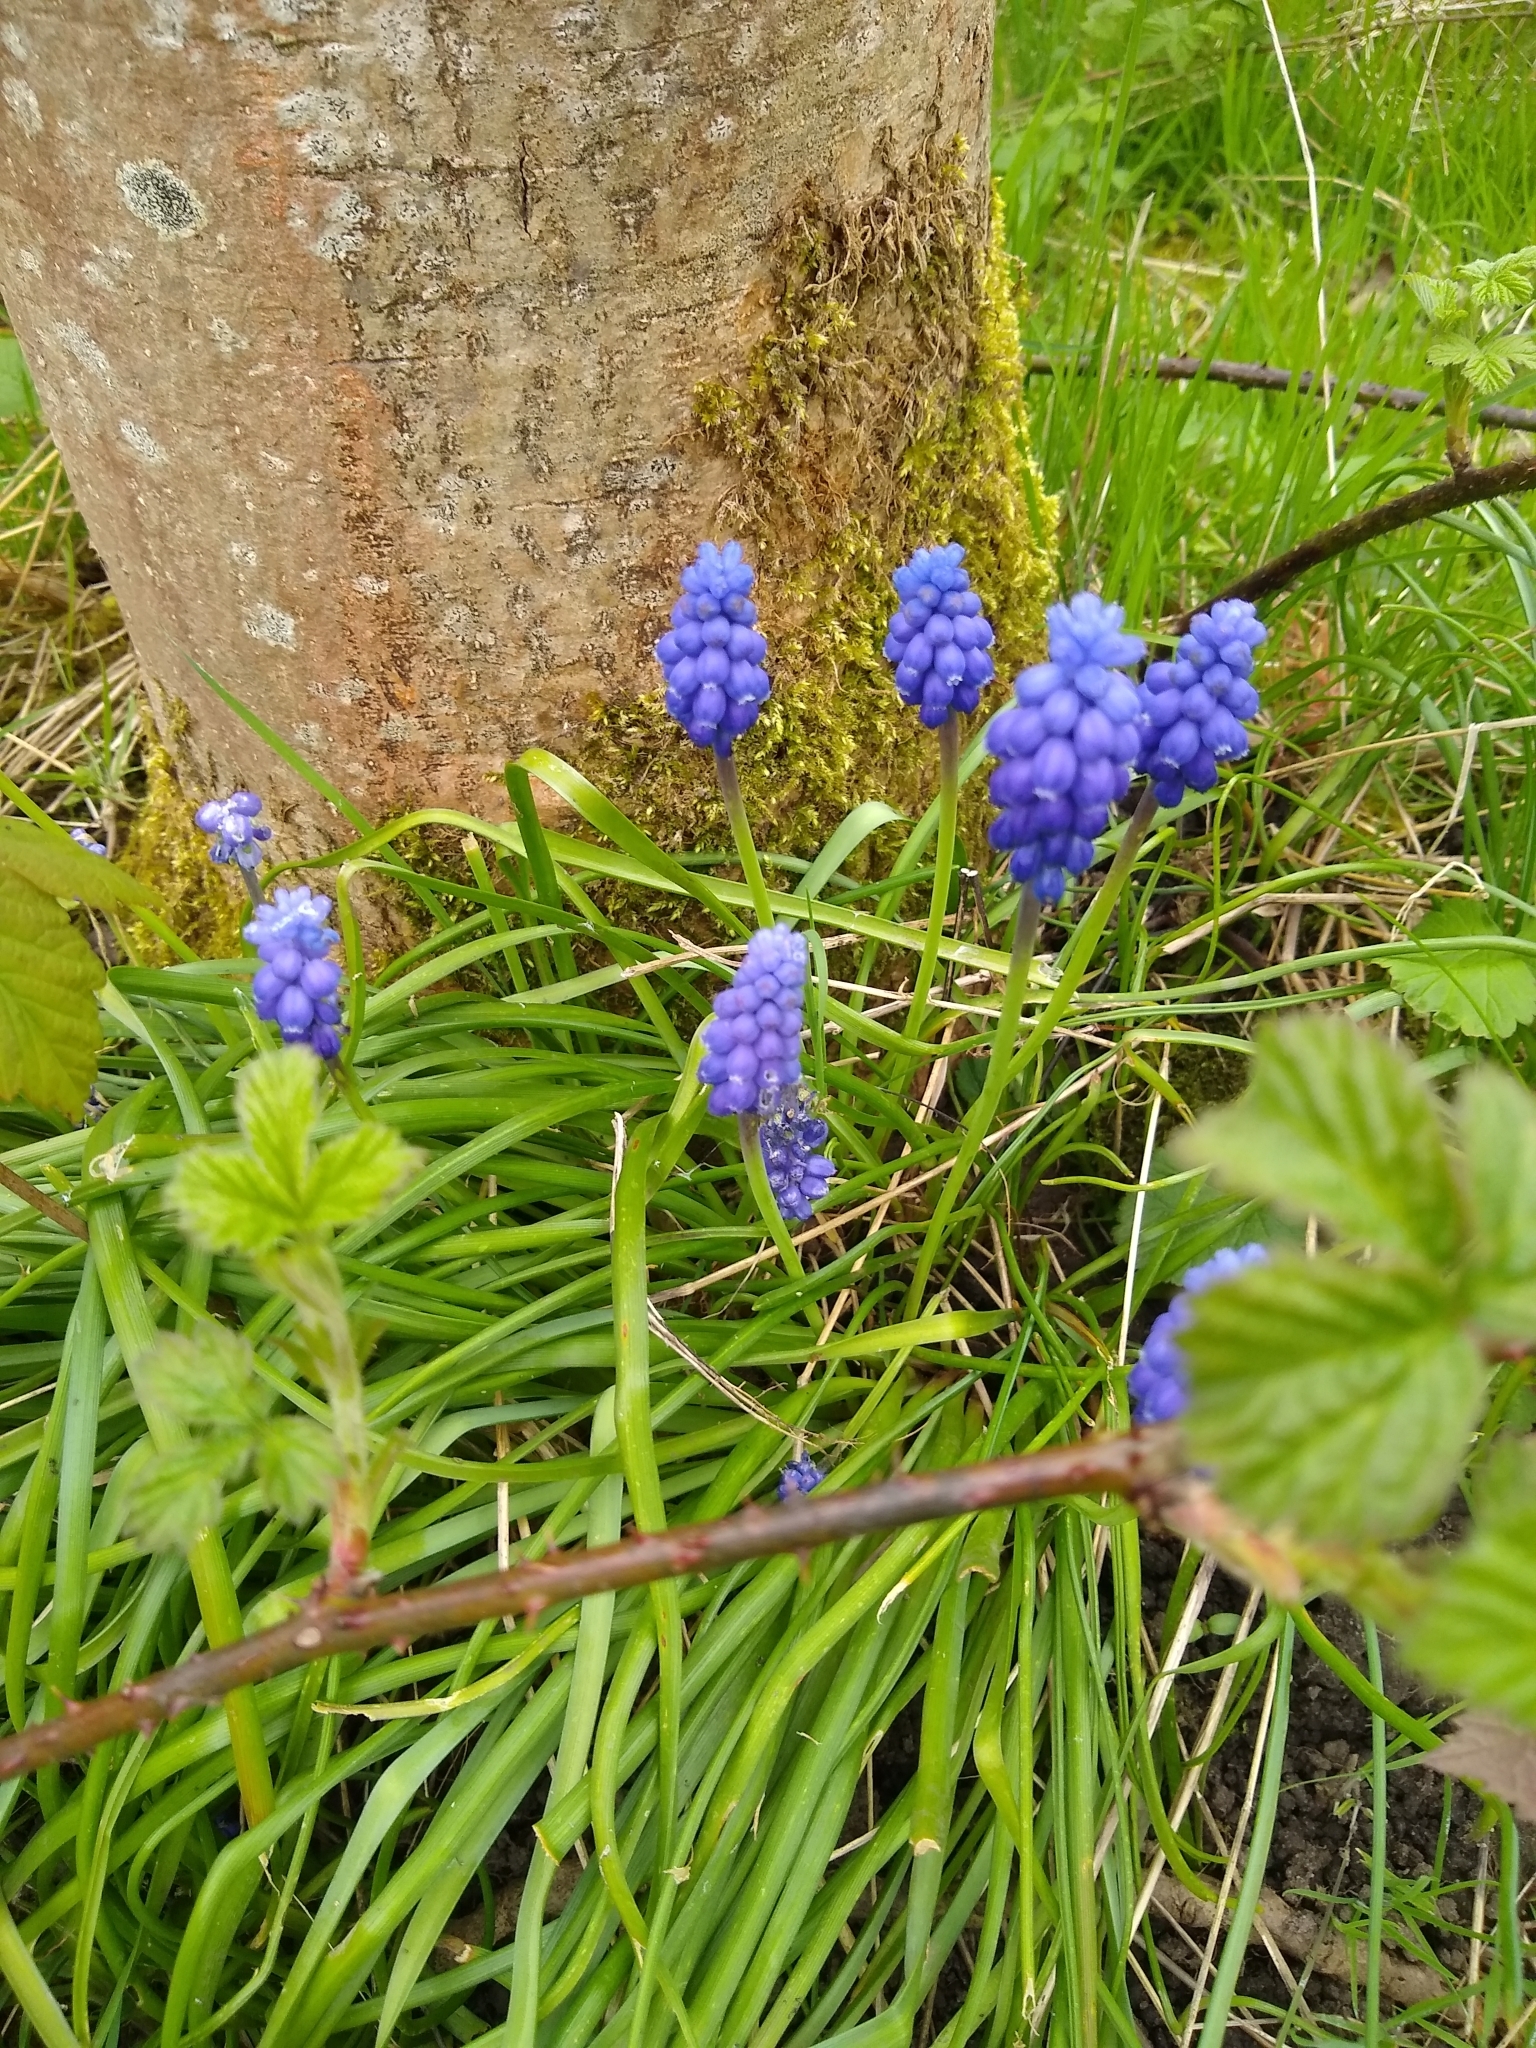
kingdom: Plantae
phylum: Tracheophyta
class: Liliopsida
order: Asparagales
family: Asparagaceae
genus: Muscari
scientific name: Muscari armeniacum
